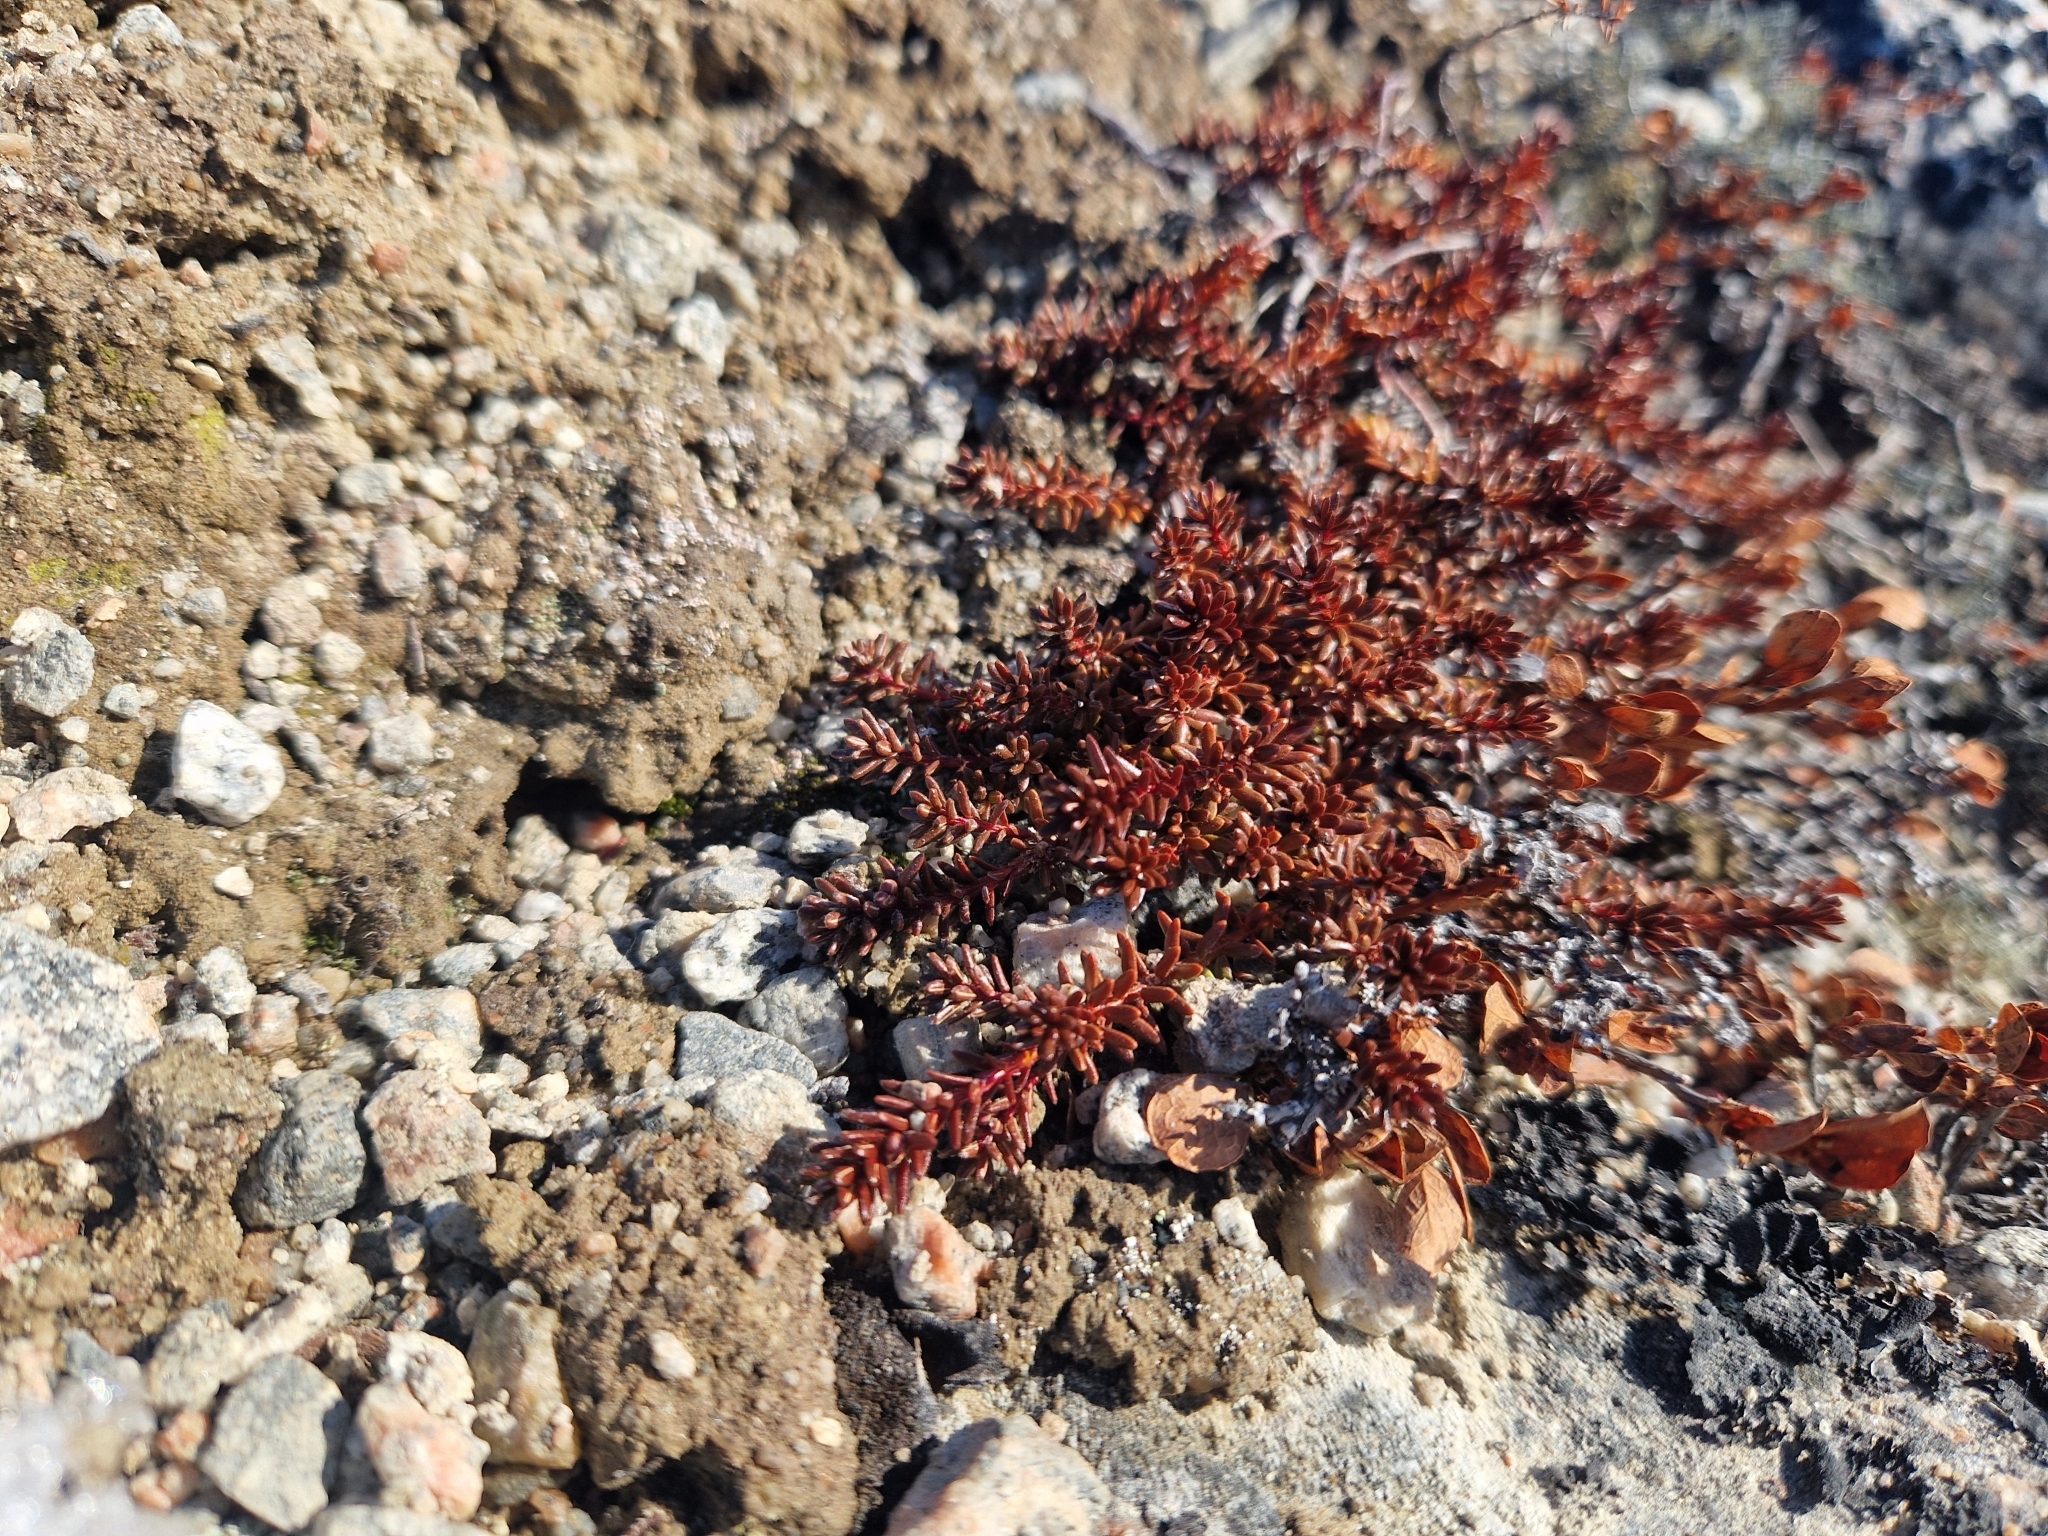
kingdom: Plantae
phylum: Tracheophyta
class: Magnoliopsida
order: Ericales
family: Ericaceae
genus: Empetrum
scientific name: Empetrum nigrum
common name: Black crowberry
